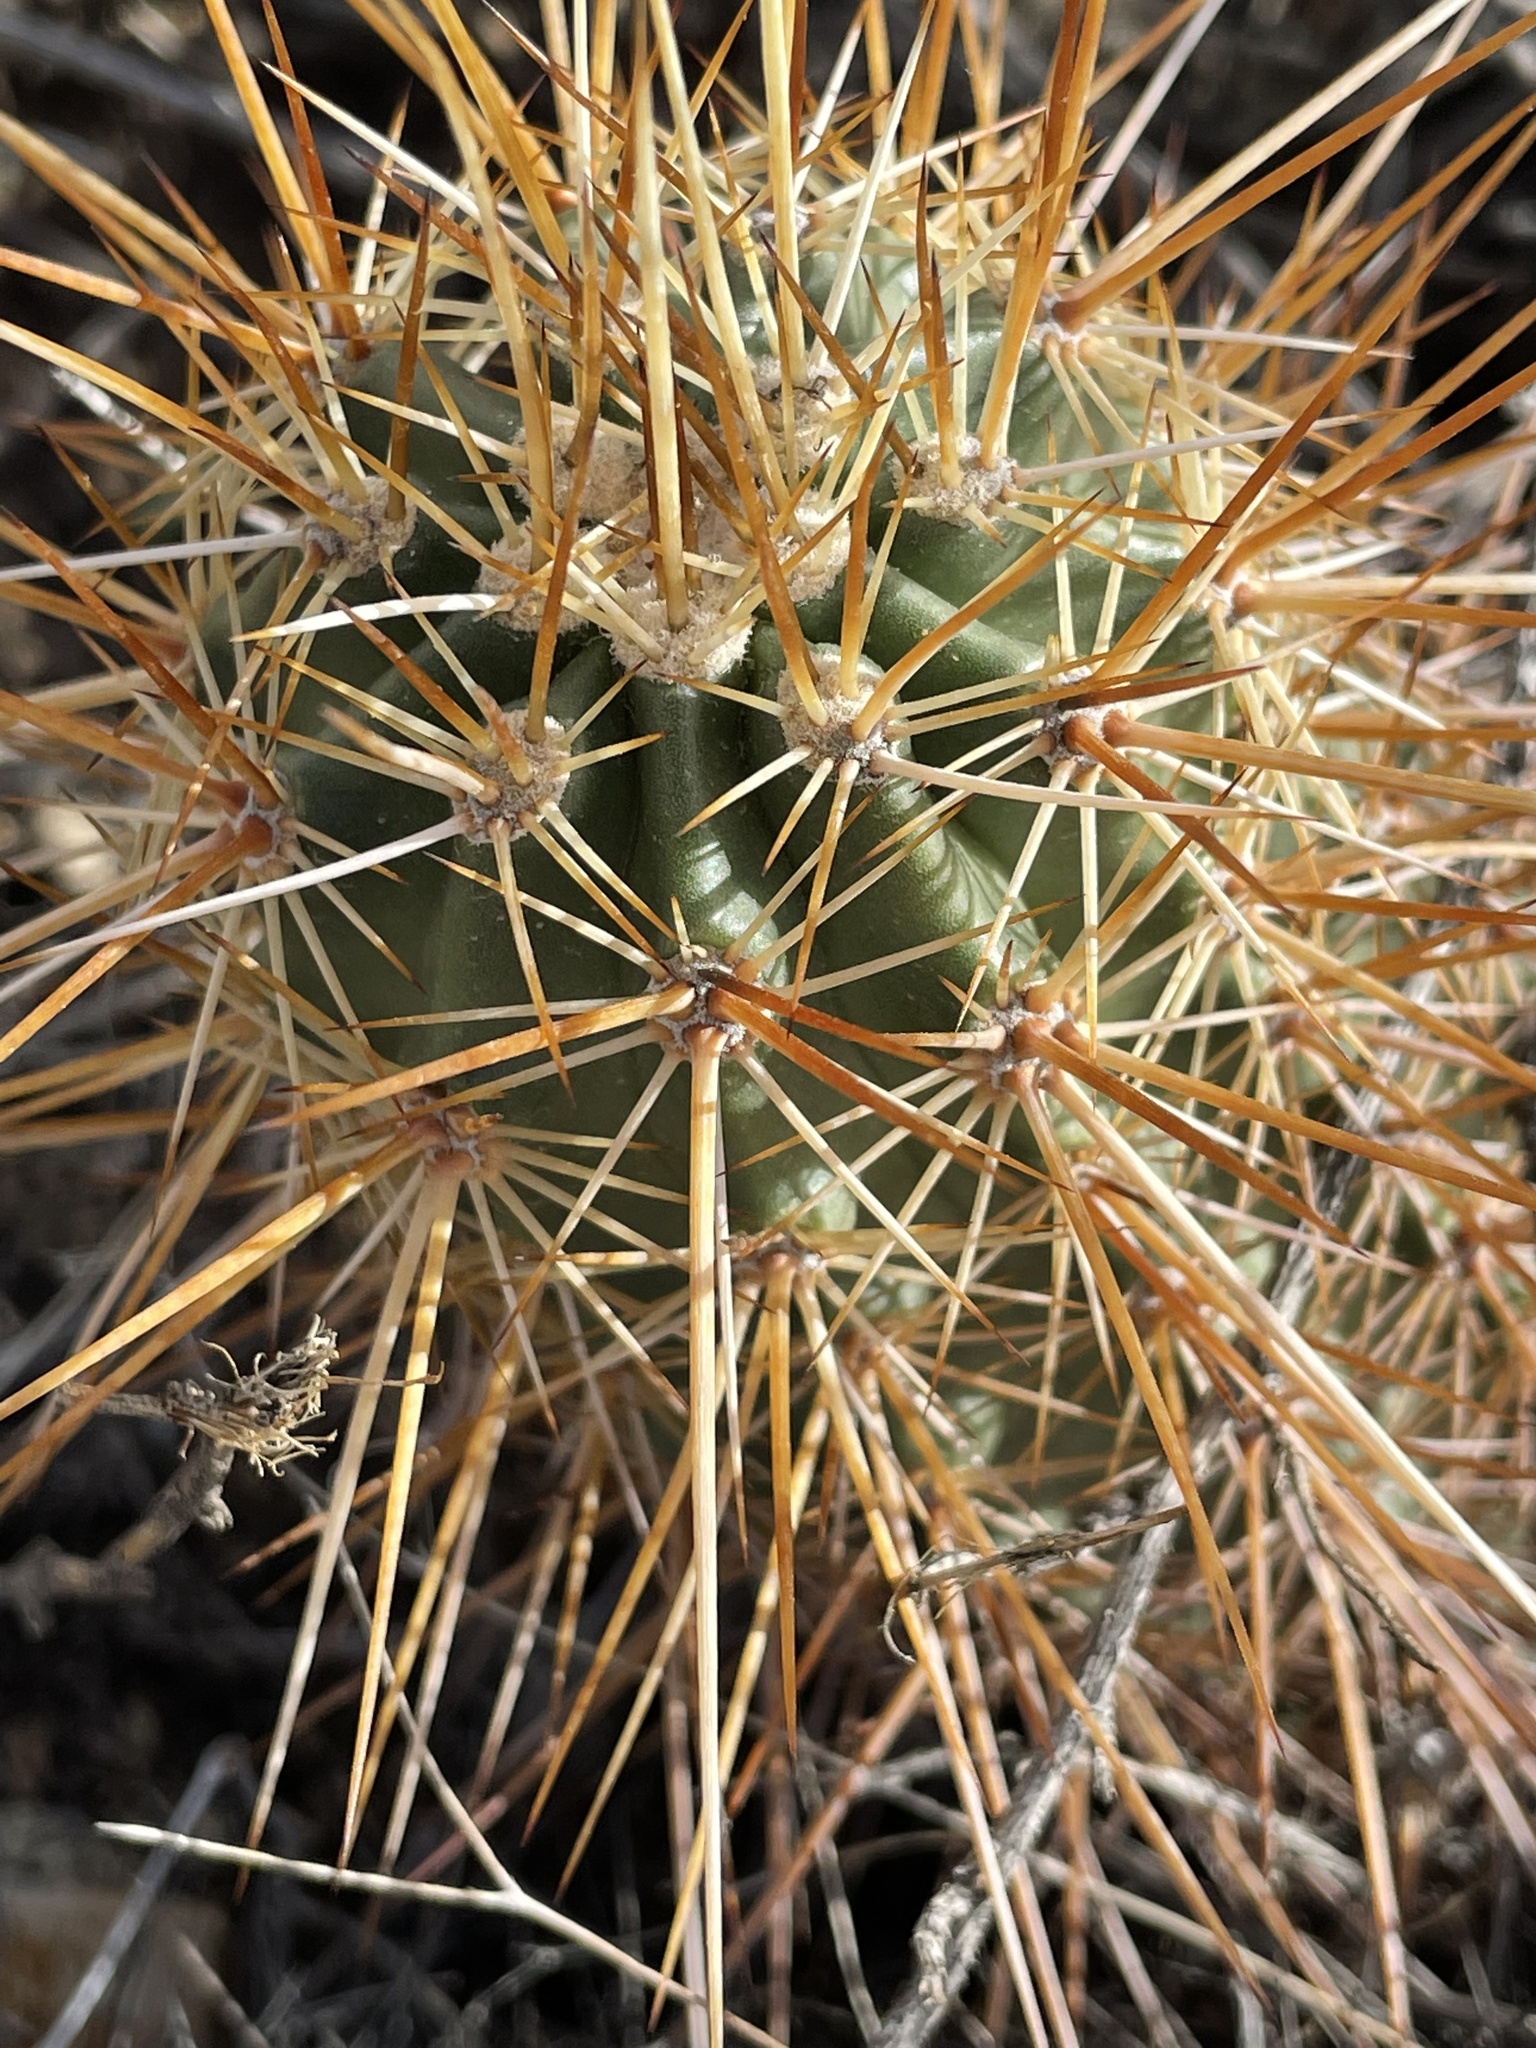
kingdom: Plantae
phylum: Tracheophyta
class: Magnoliopsida
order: Caryophyllales
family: Cactaceae
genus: Echinocereus
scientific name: Echinocereus engelmannii
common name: Engelmann's hedgehog cactus
